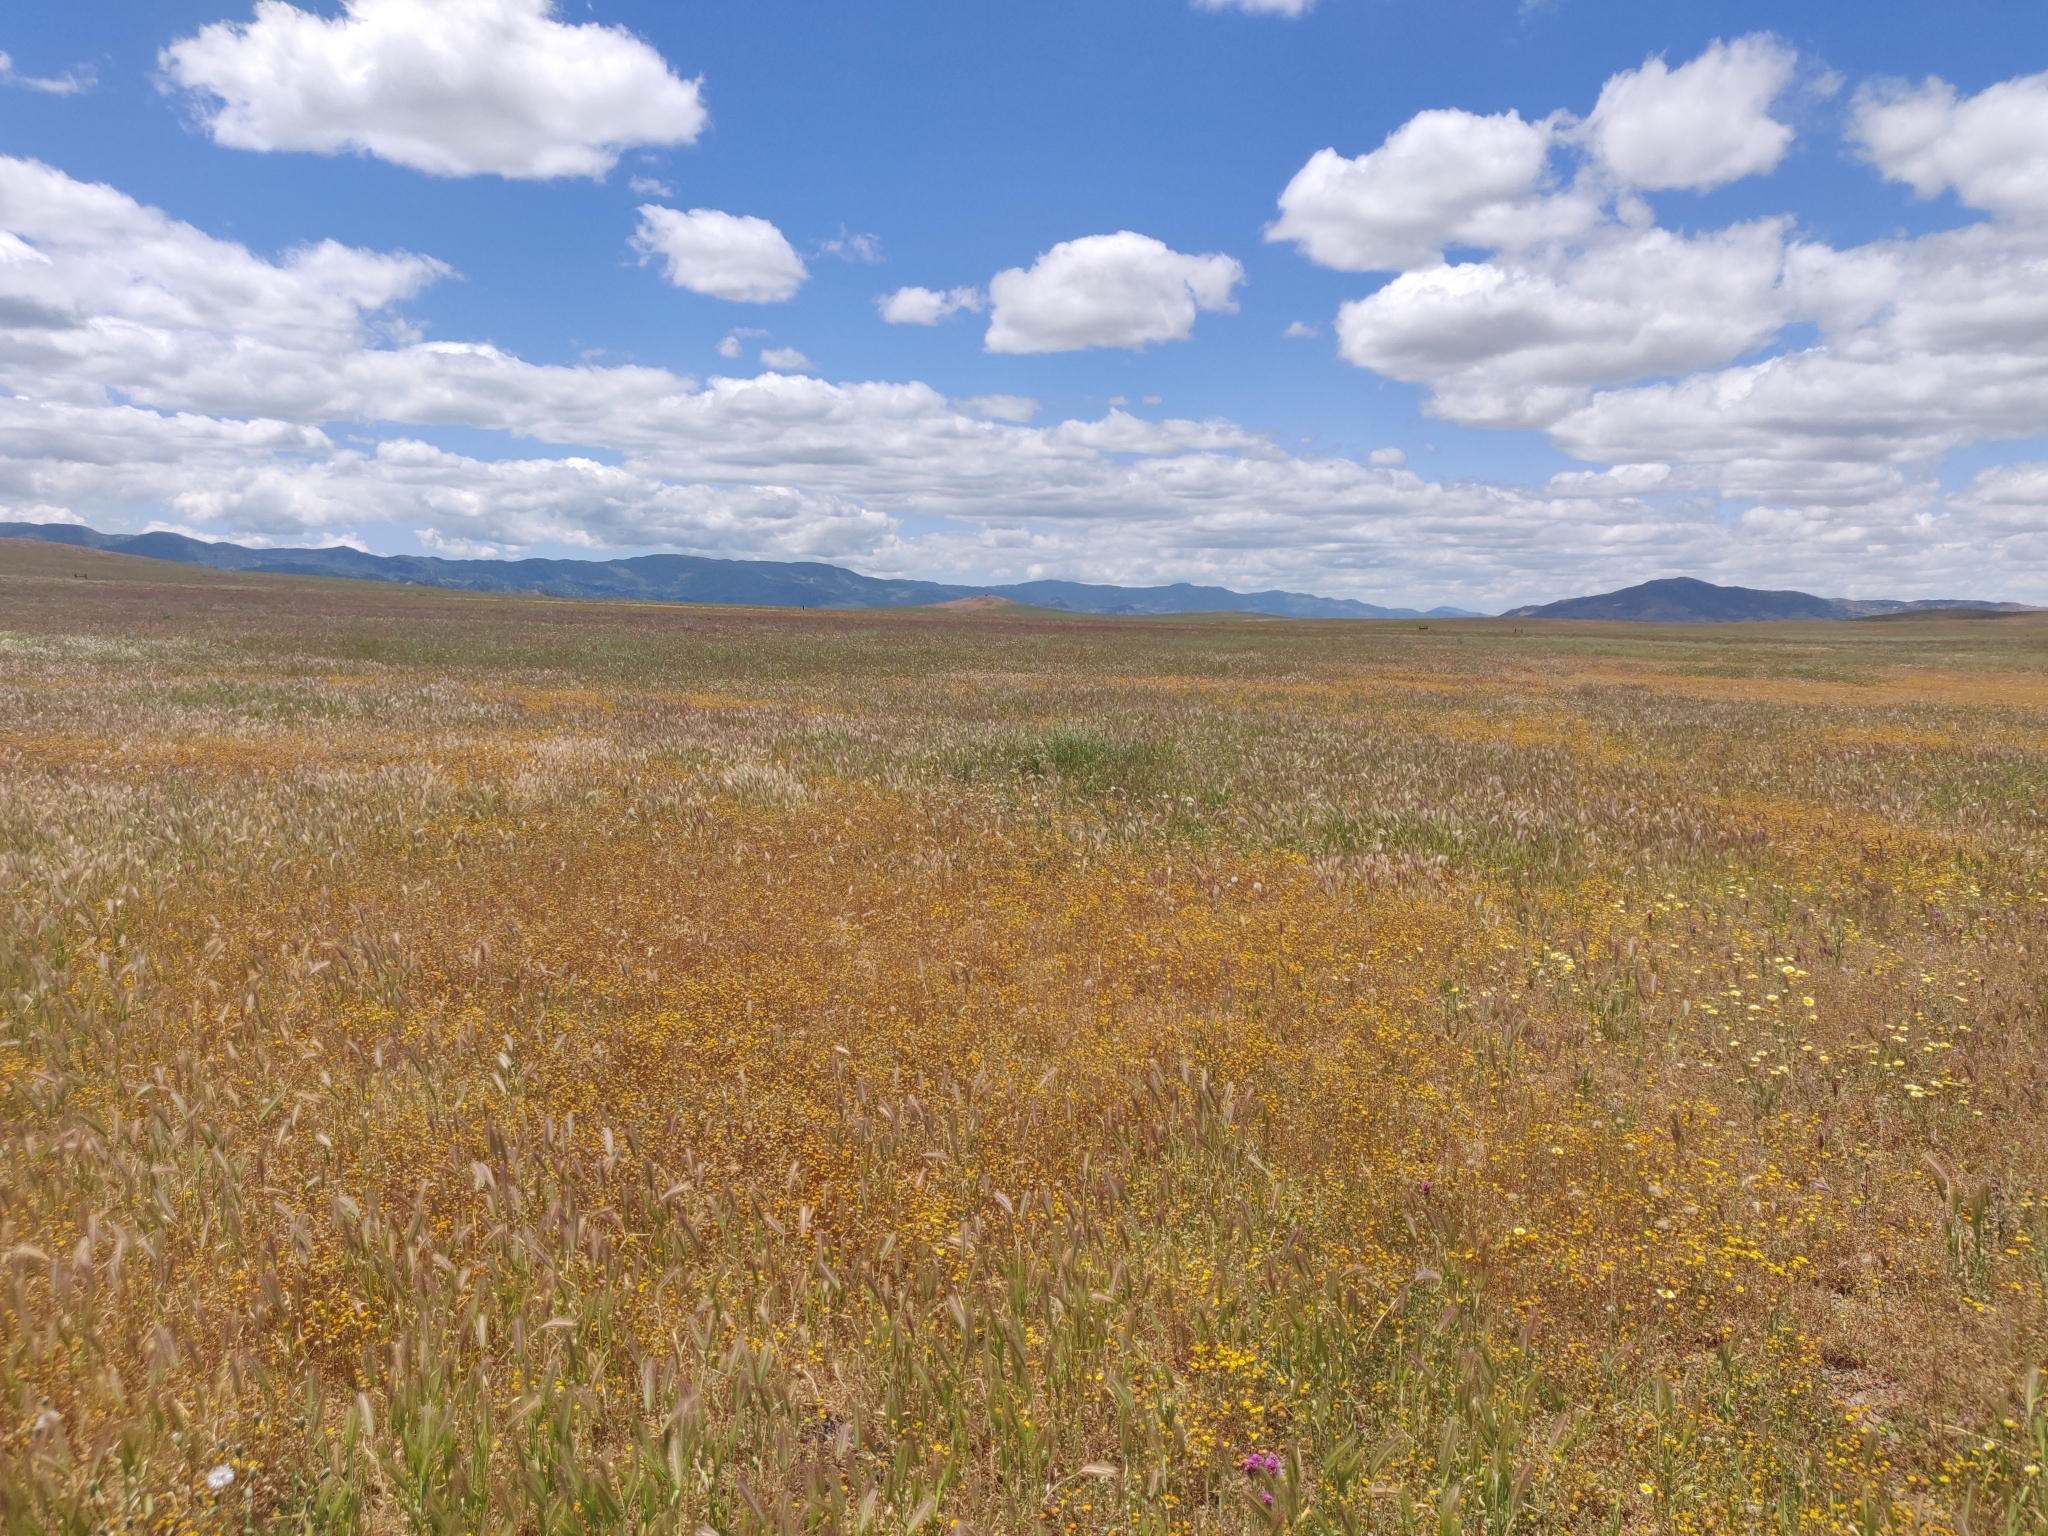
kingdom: Plantae
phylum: Tracheophyta
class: Magnoliopsida
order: Ranunculales
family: Papaveraceae
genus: Eschscholzia
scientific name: Eschscholzia californica
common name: California poppy
